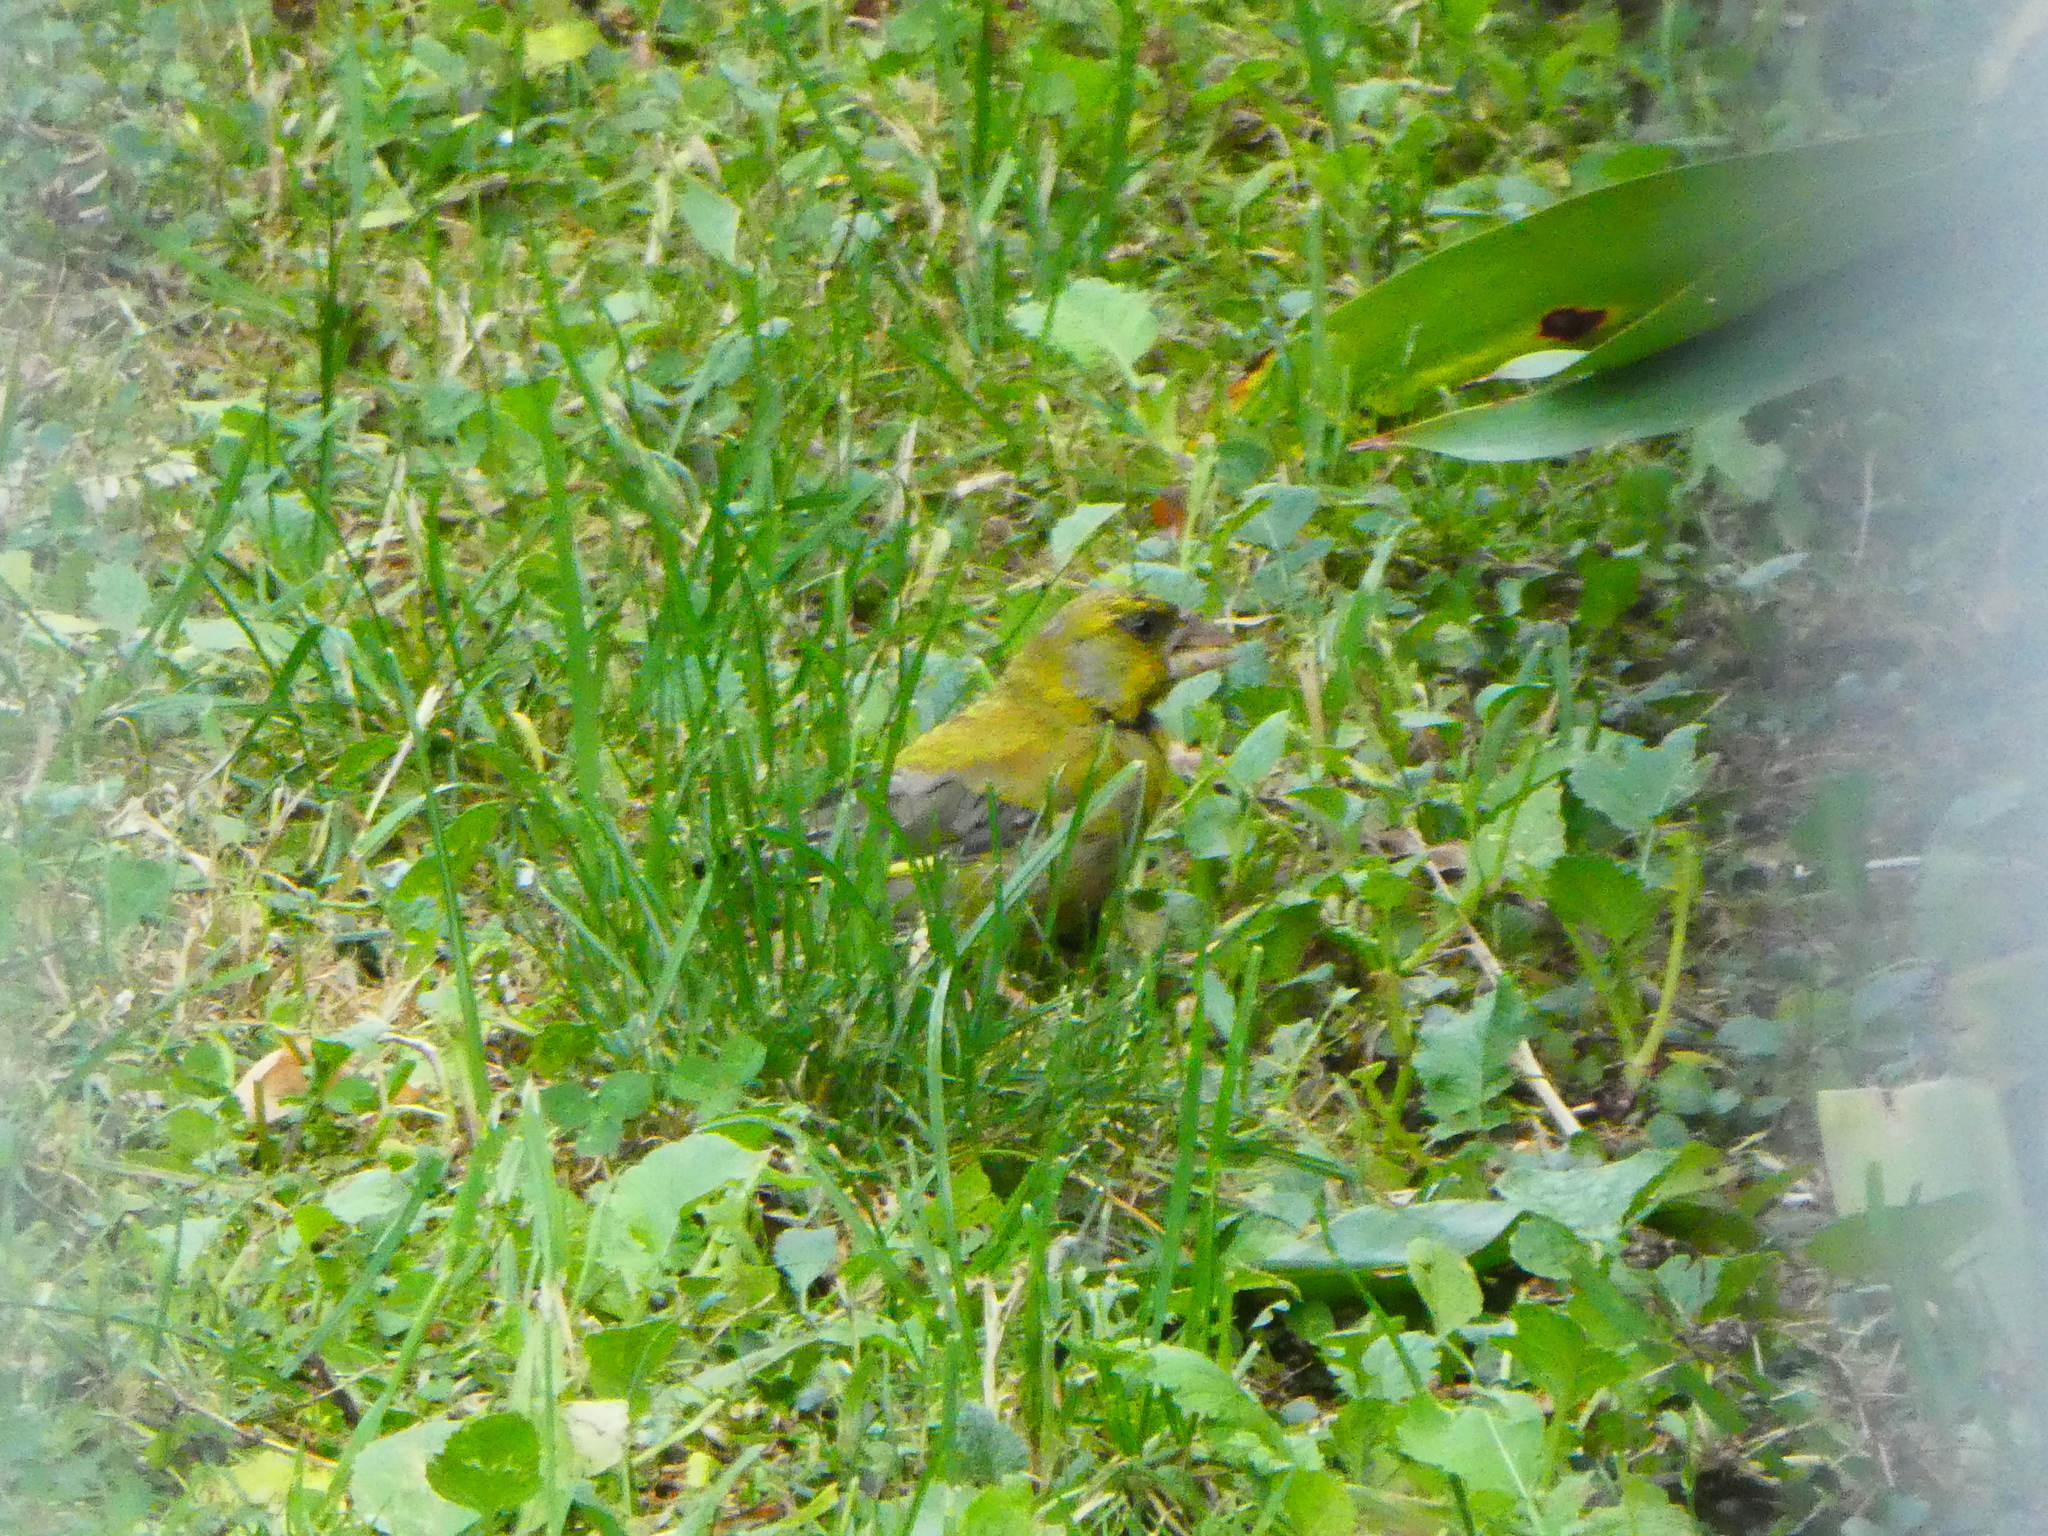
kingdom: Plantae
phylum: Tracheophyta
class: Liliopsida
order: Poales
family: Poaceae
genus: Chloris
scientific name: Chloris chloris
